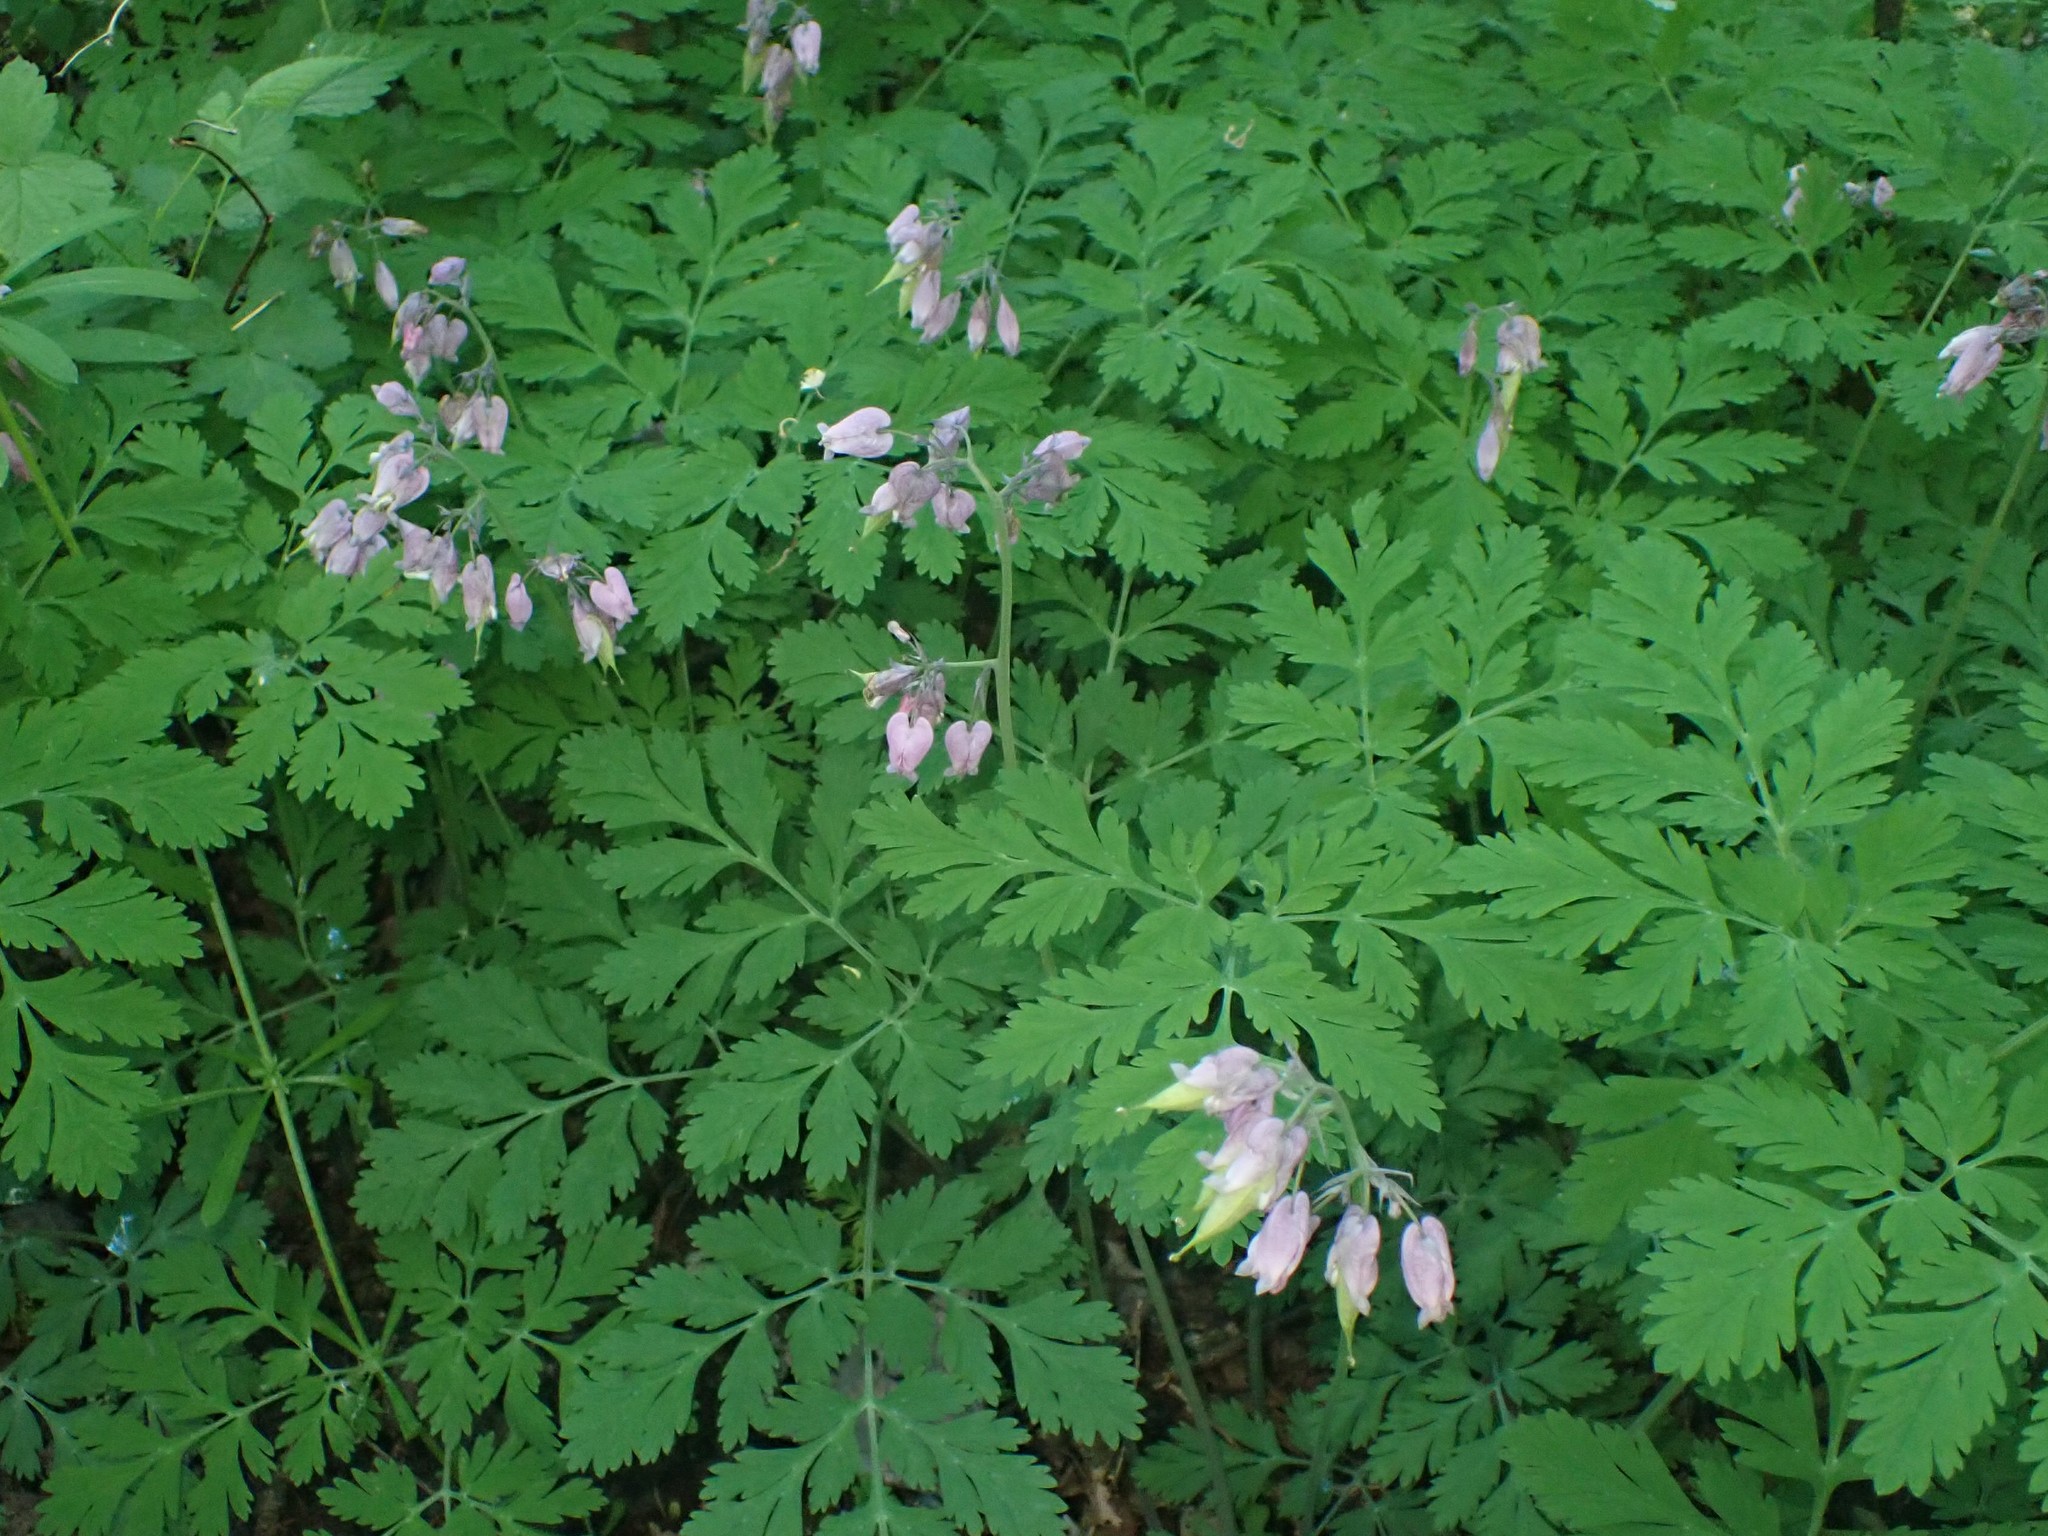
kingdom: Plantae
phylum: Tracheophyta
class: Magnoliopsida
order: Ranunculales
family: Papaveraceae
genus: Dicentra
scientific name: Dicentra formosa
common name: Bleeding-heart
